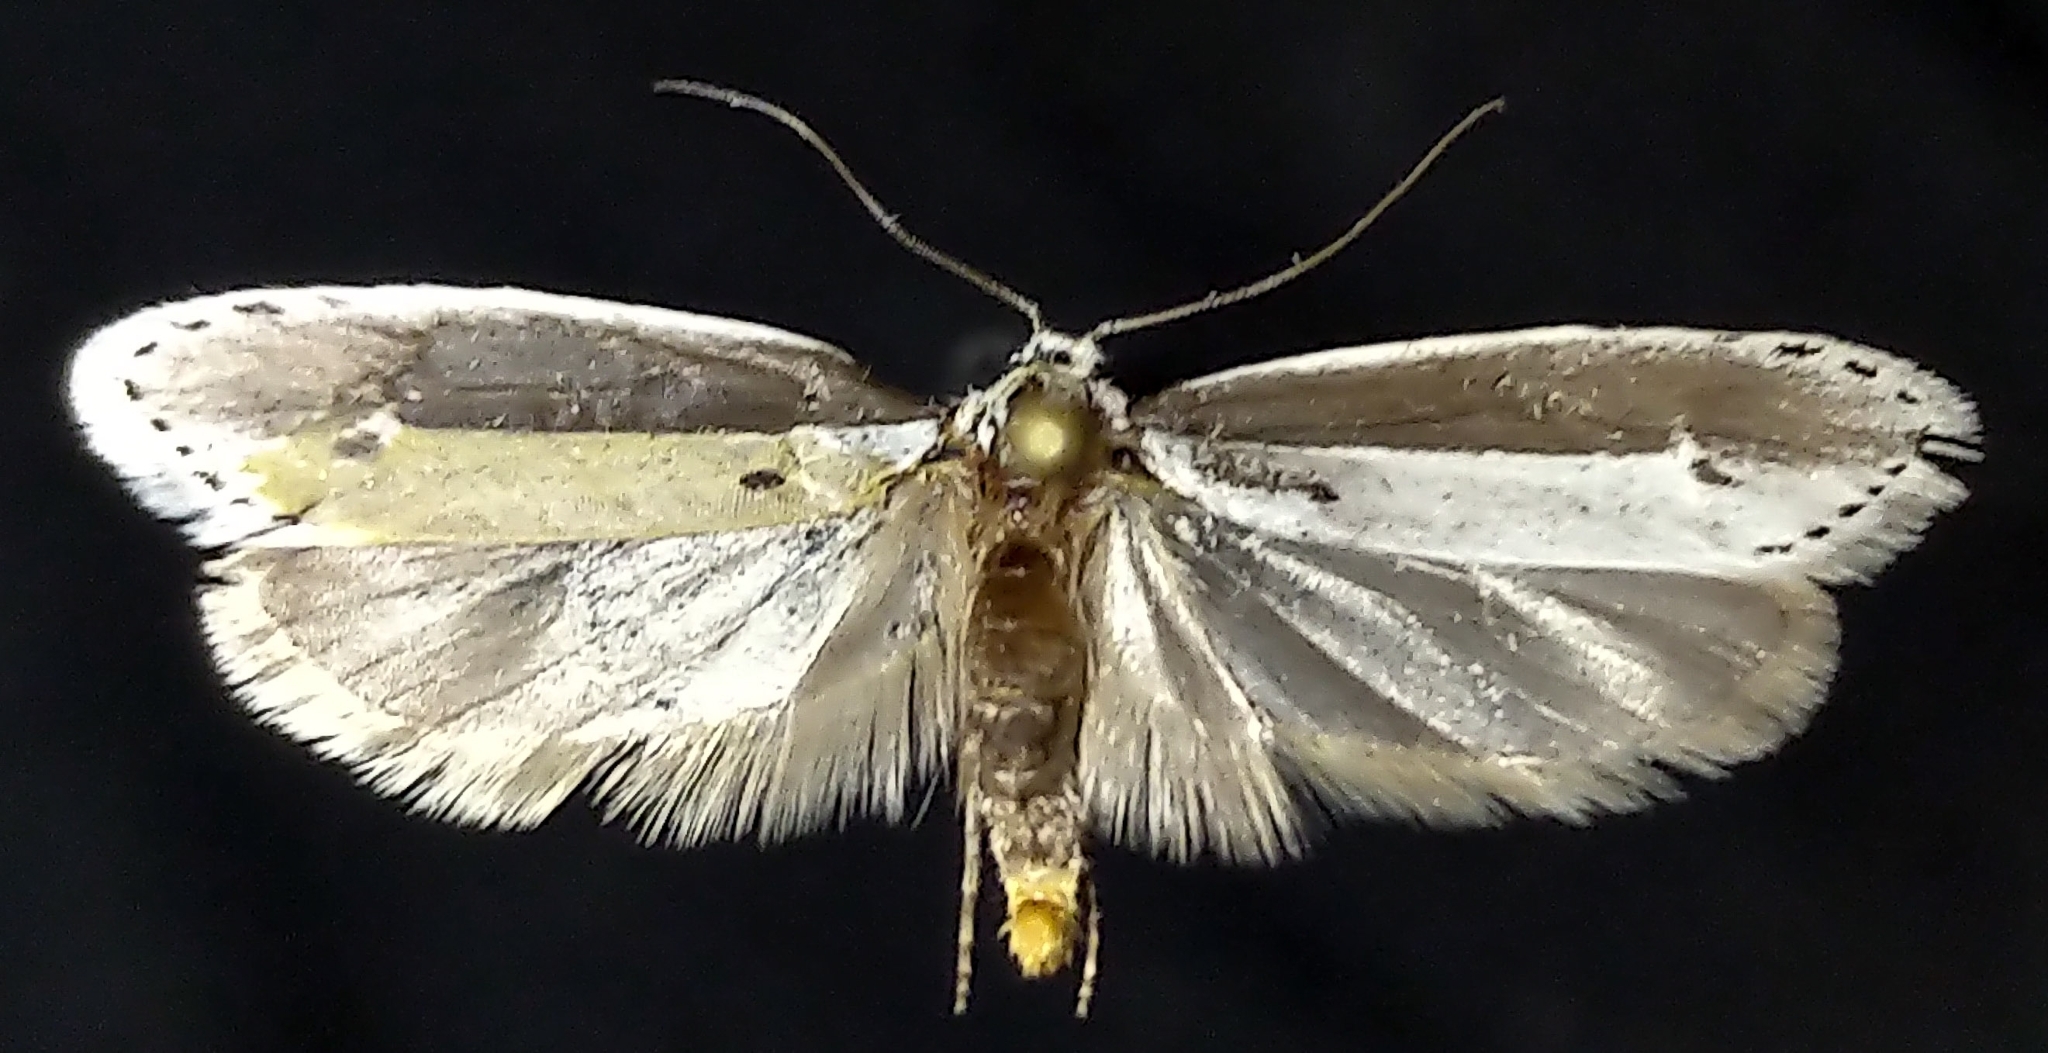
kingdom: Animalia
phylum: Arthropoda
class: Insecta
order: Lepidoptera
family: Ethmiidae
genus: Ethmia
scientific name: Ethmia albicostella
